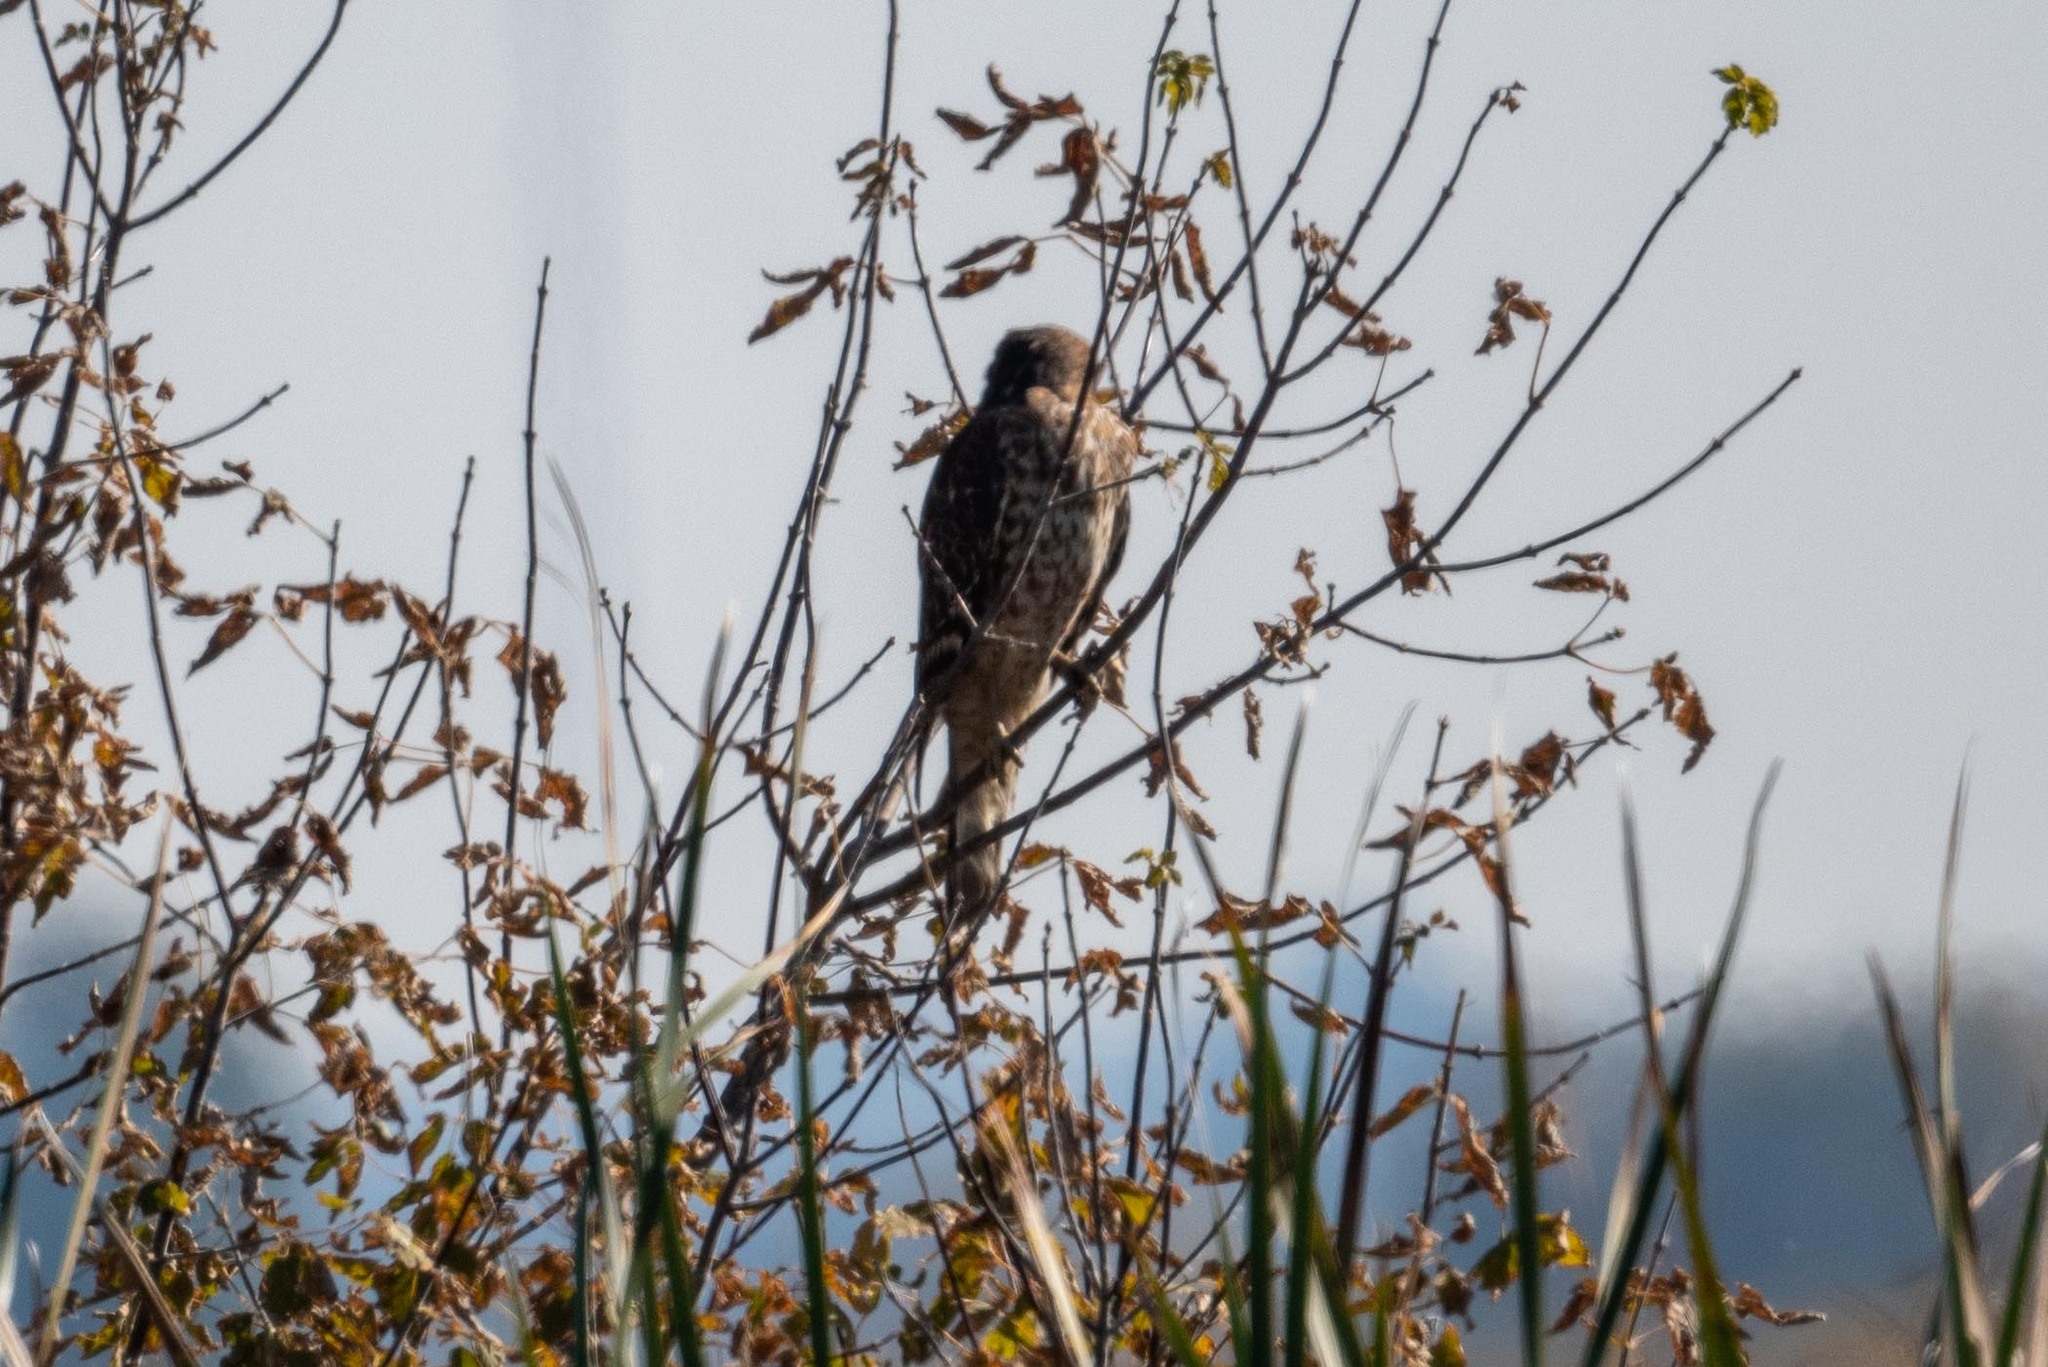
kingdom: Animalia
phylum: Chordata
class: Aves
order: Accipitriformes
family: Accipitridae
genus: Buteo
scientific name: Buteo lineatus
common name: Red-shouldered hawk
